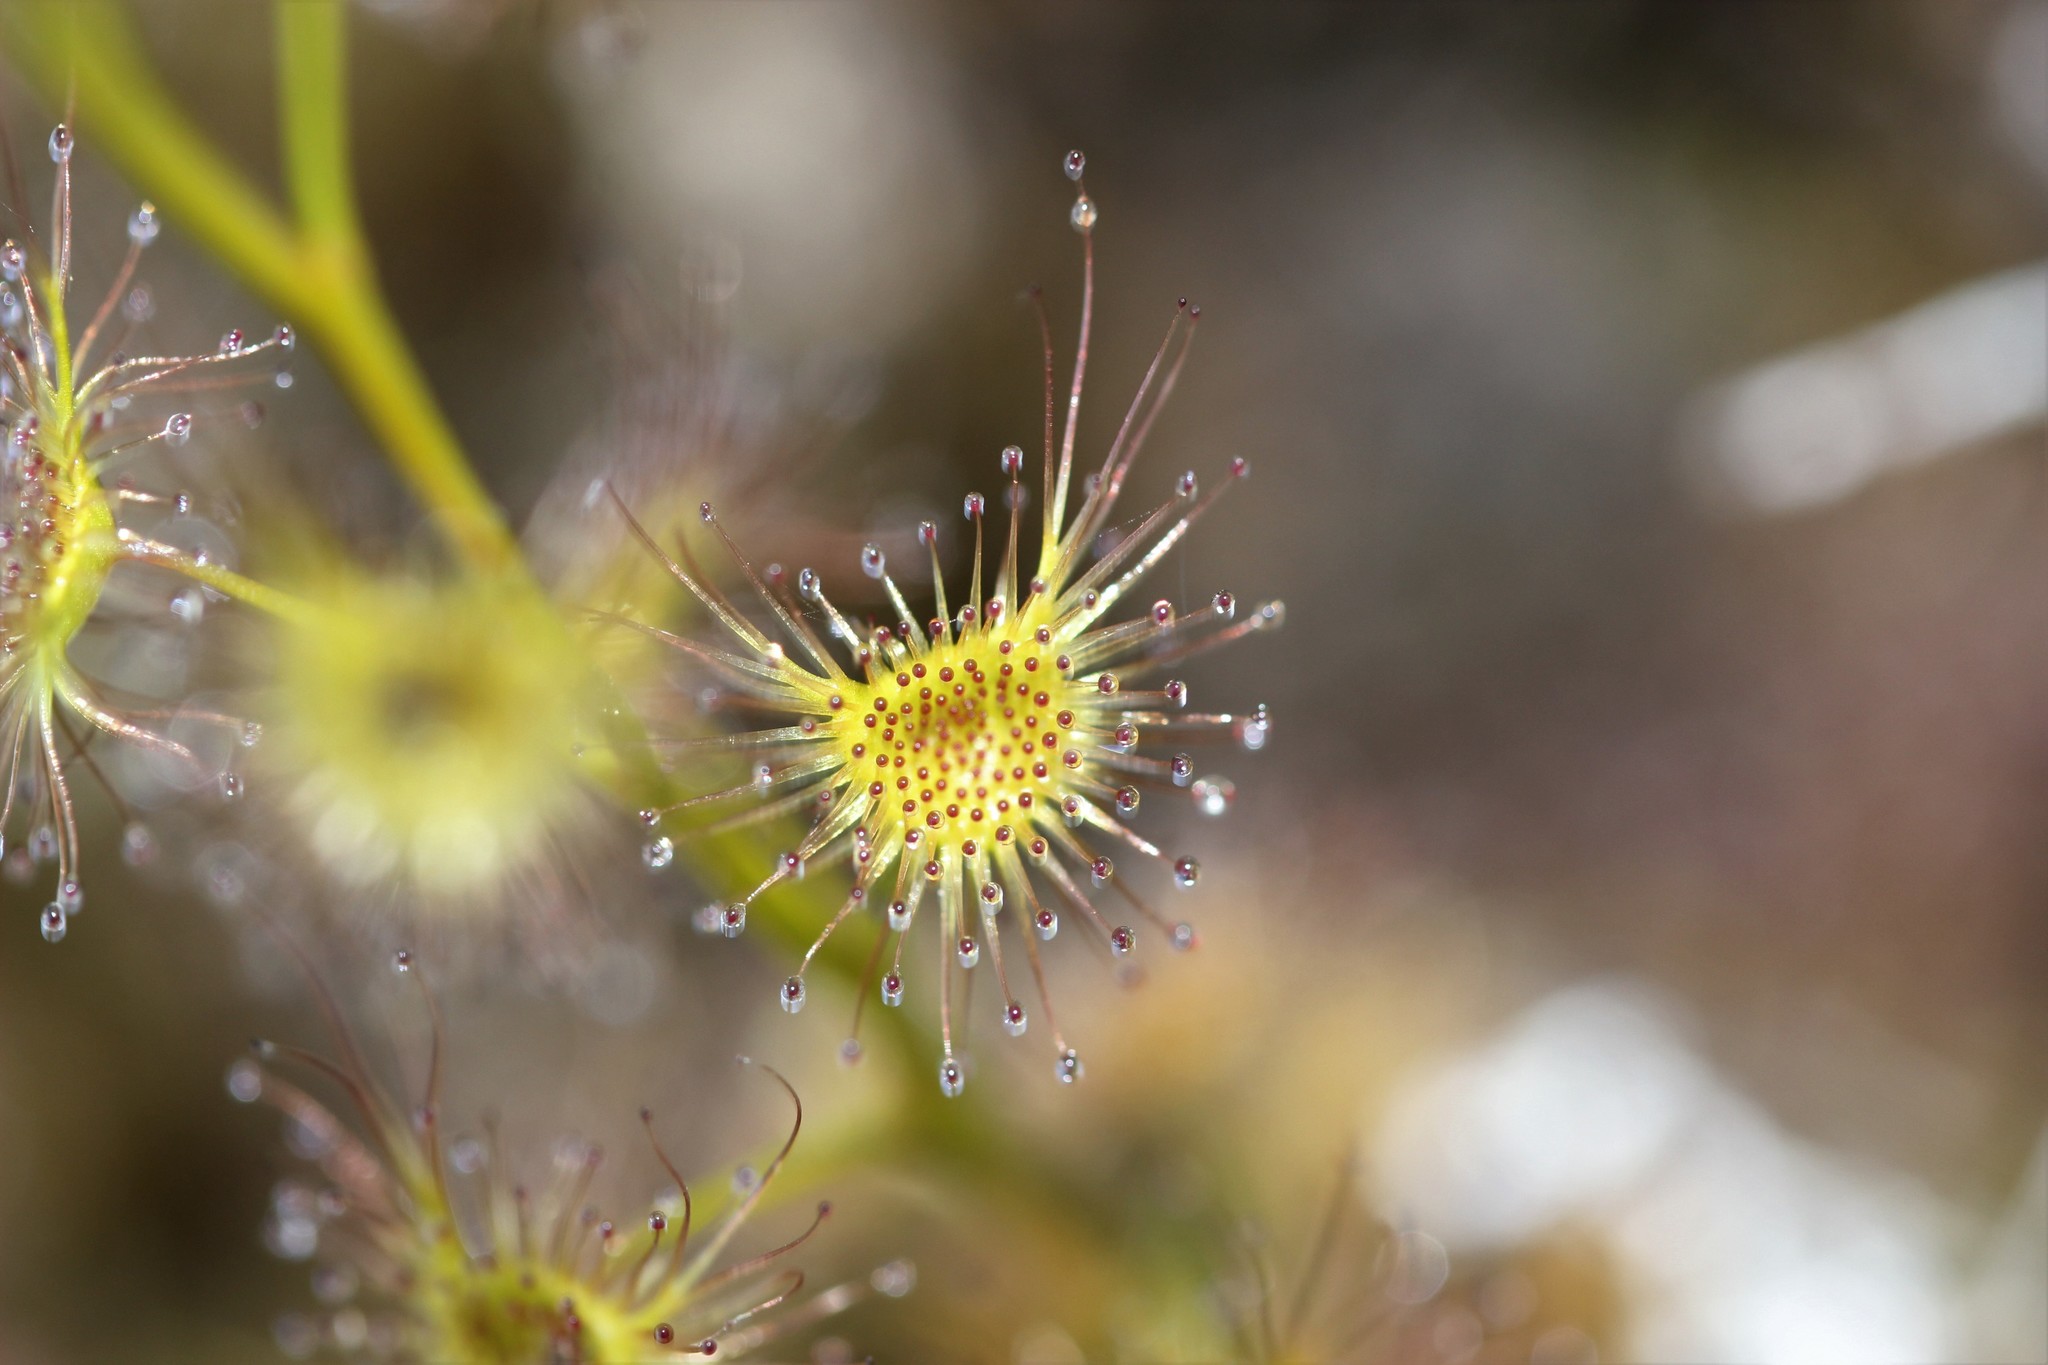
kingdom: Plantae
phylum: Tracheophyta
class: Magnoliopsida
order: Caryophyllales
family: Droseraceae
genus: Drosera
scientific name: Drosera peltata
